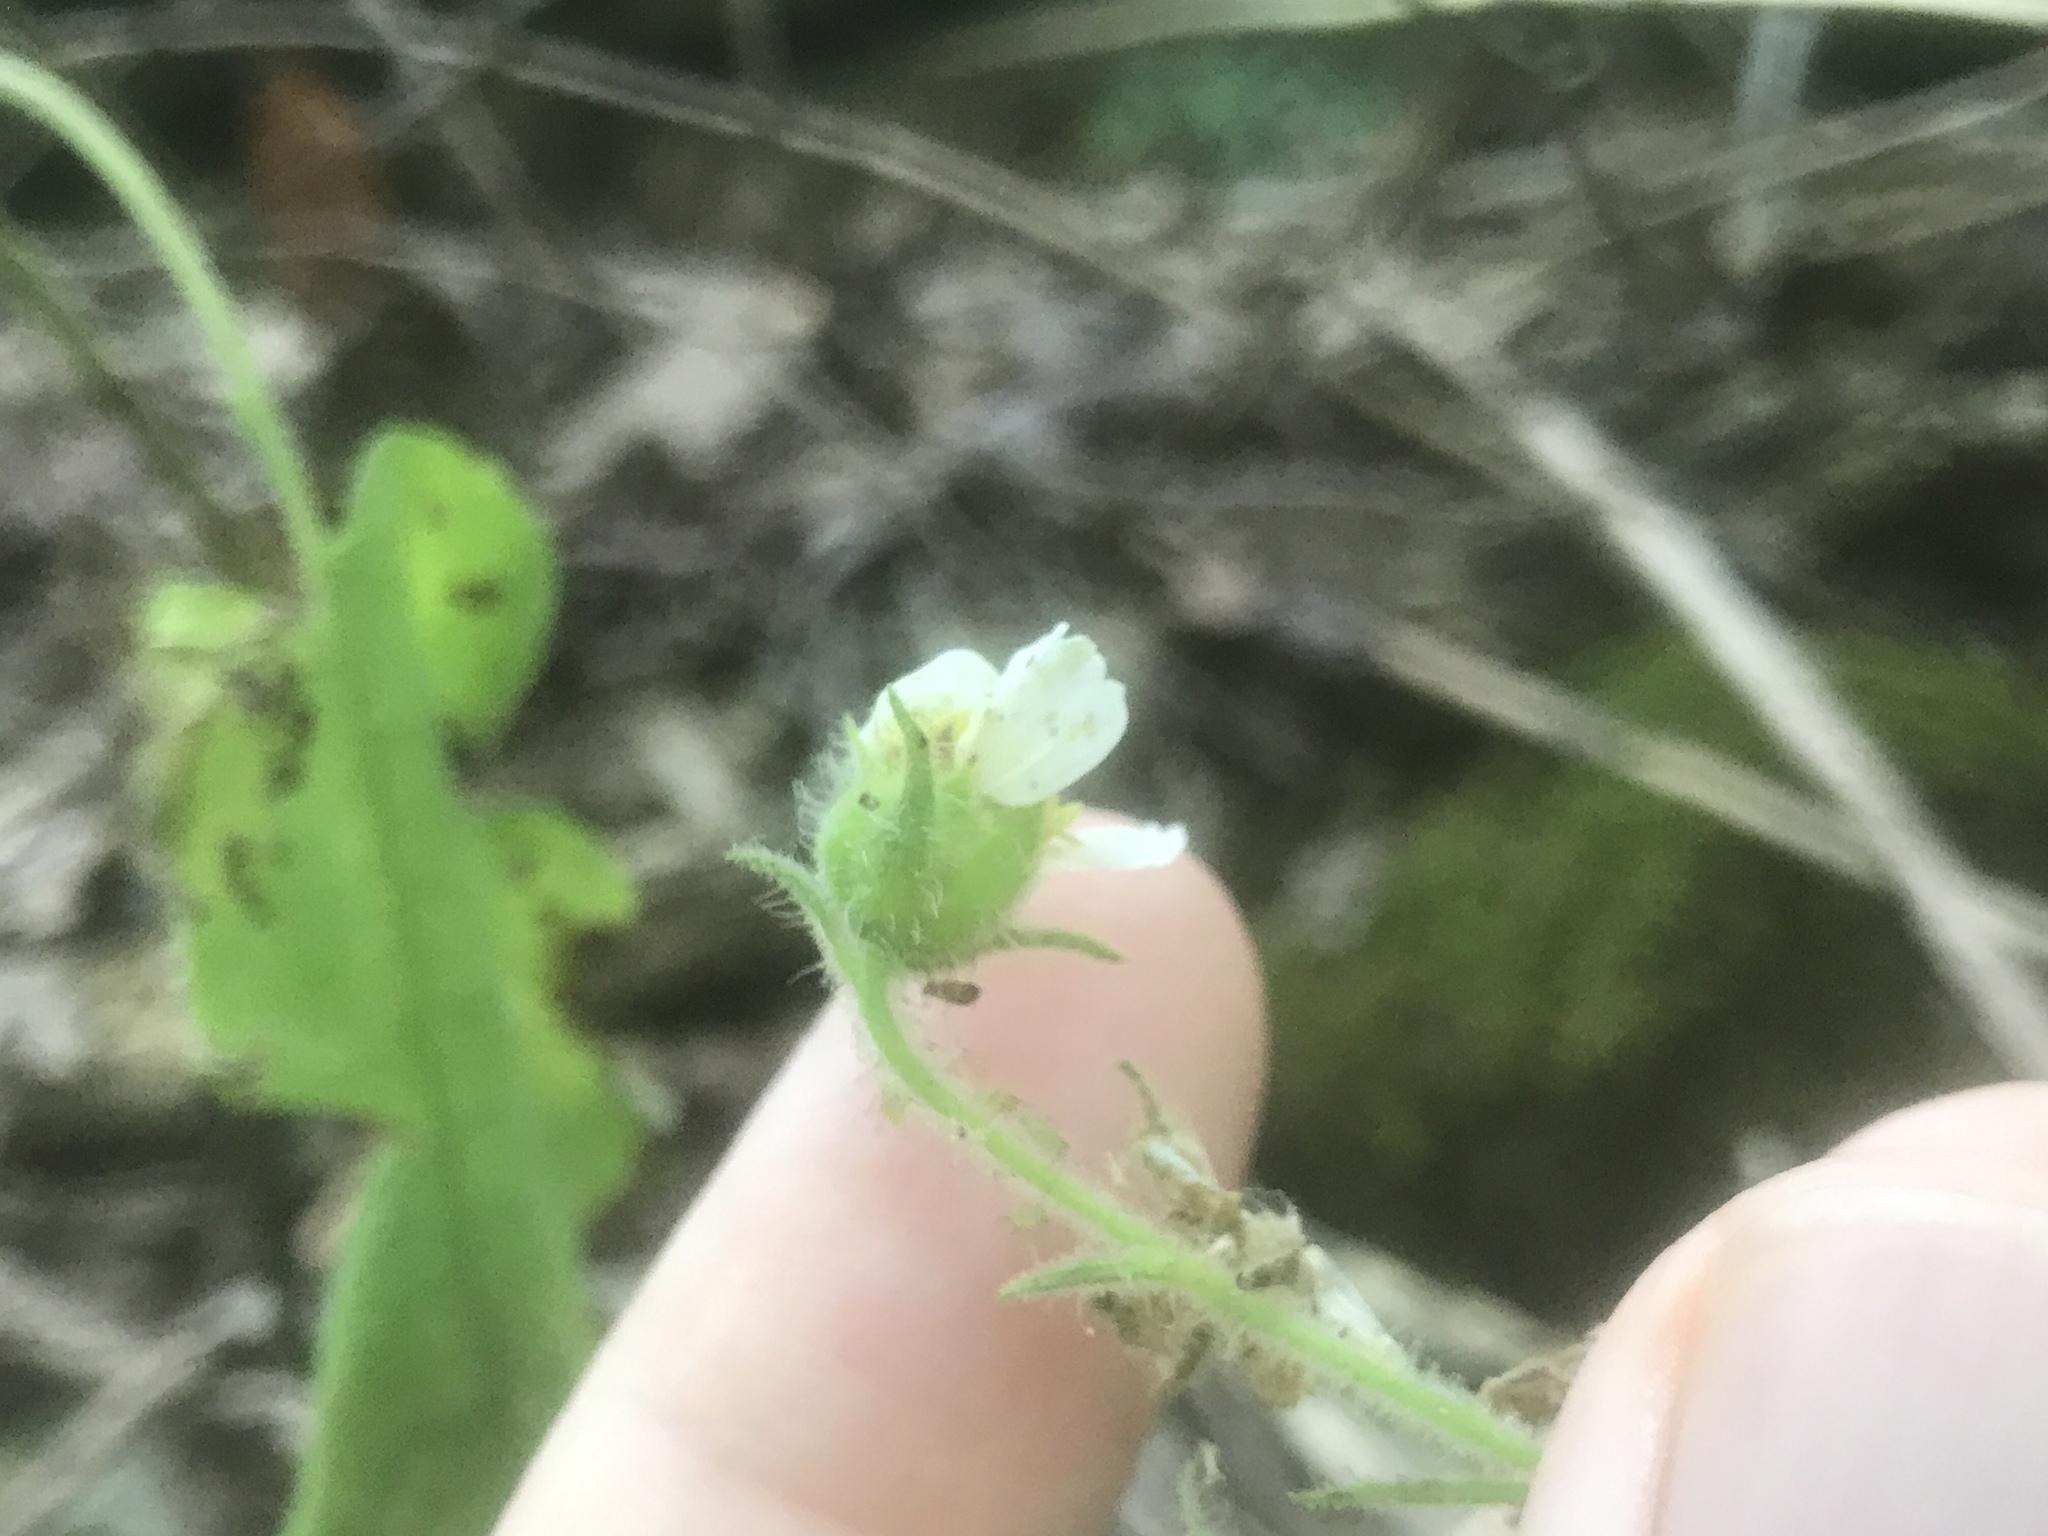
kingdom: Plantae
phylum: Tracheophyta
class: Magnoliopsida
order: Asterales
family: Asteraceae
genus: Polymnia
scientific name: Polymnia canadensis
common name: Pale-flowered leafcup
